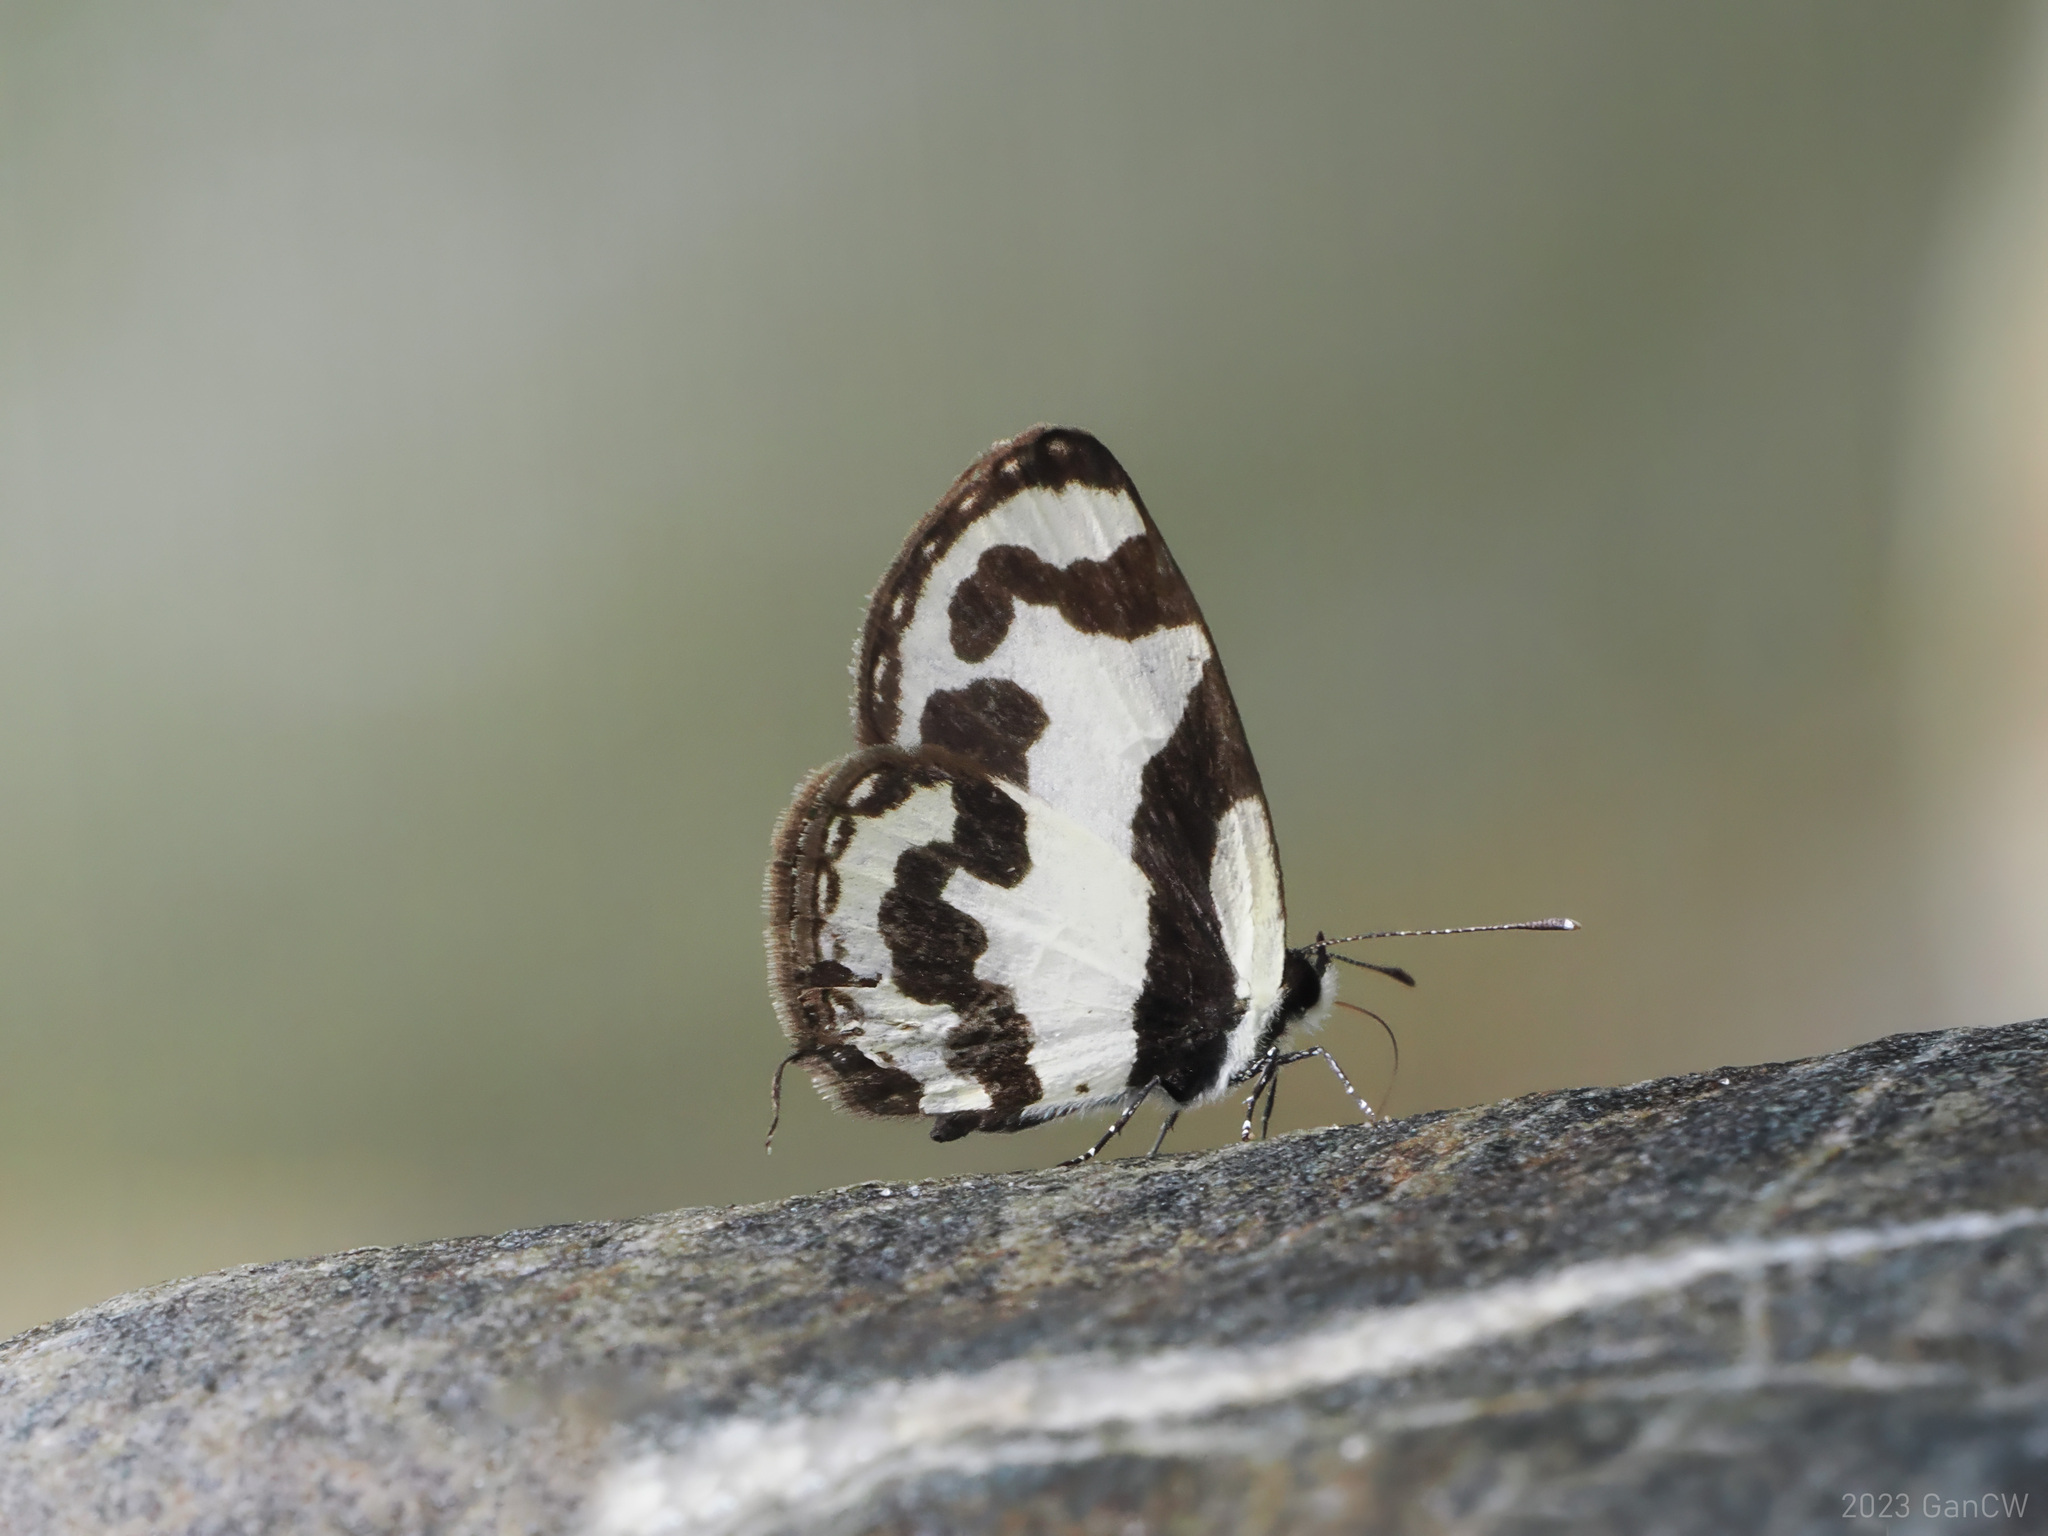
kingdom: Animalia
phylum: Arthropoda
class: Insecta
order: Lepidoptera
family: Lycaenidae
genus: Caleta
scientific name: Caleta
